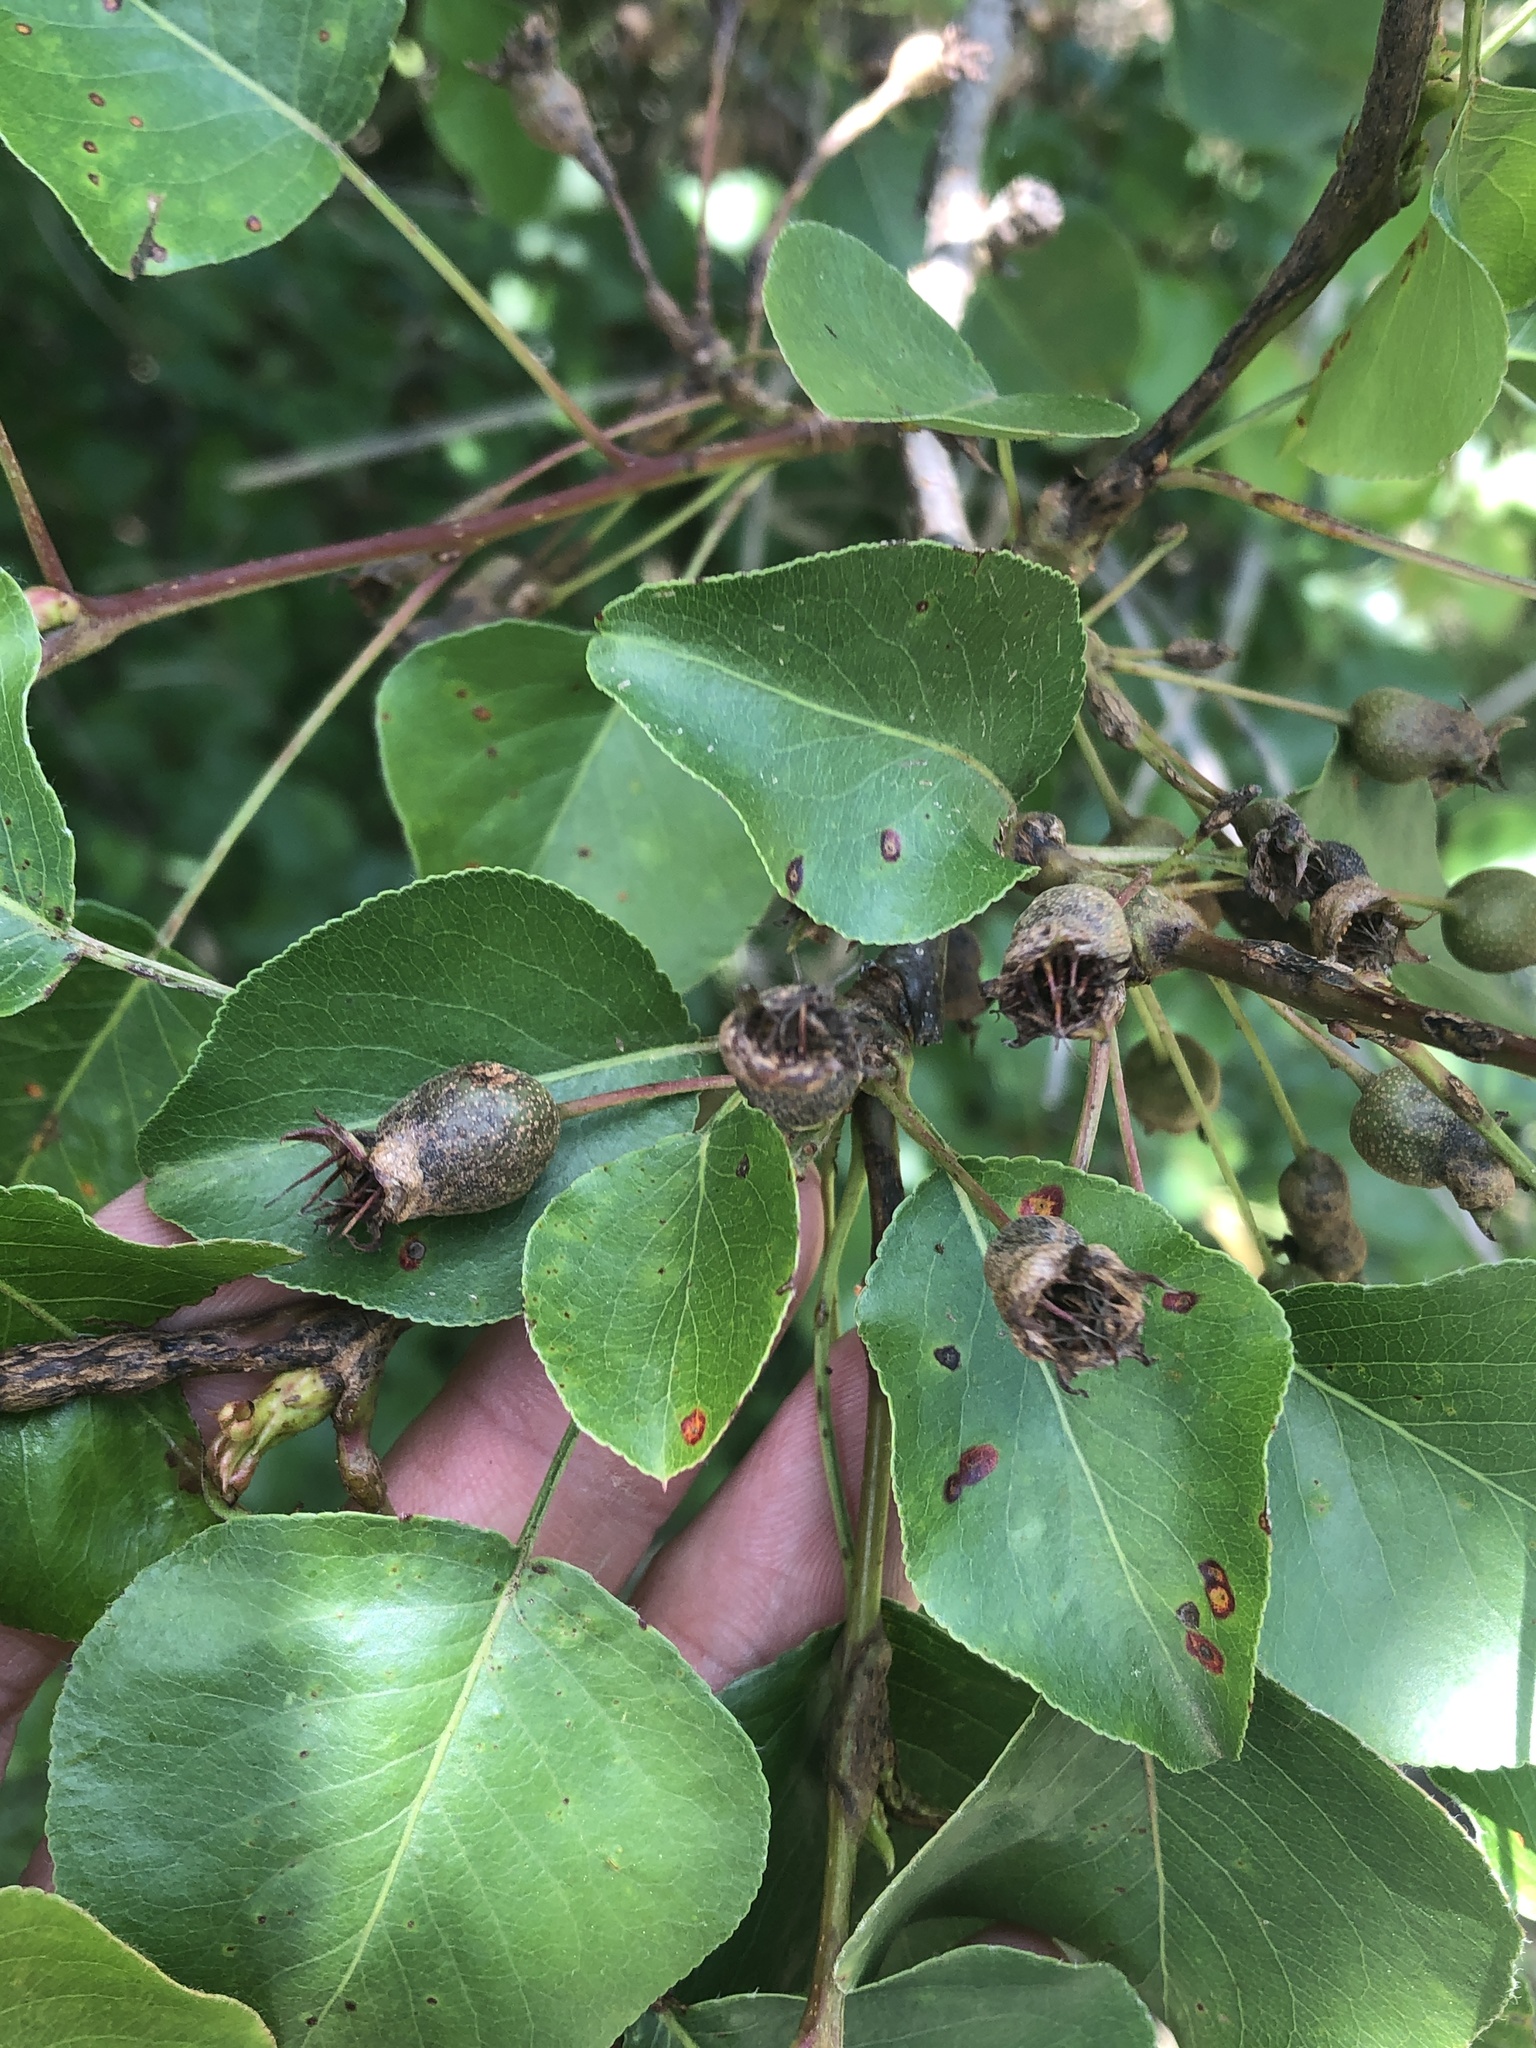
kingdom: Plantae
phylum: Tracheophyta
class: Magnoliopsida
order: Rosales
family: Rosaceae
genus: Pyrus
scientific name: Pyrus calleryana
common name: Callery pear
